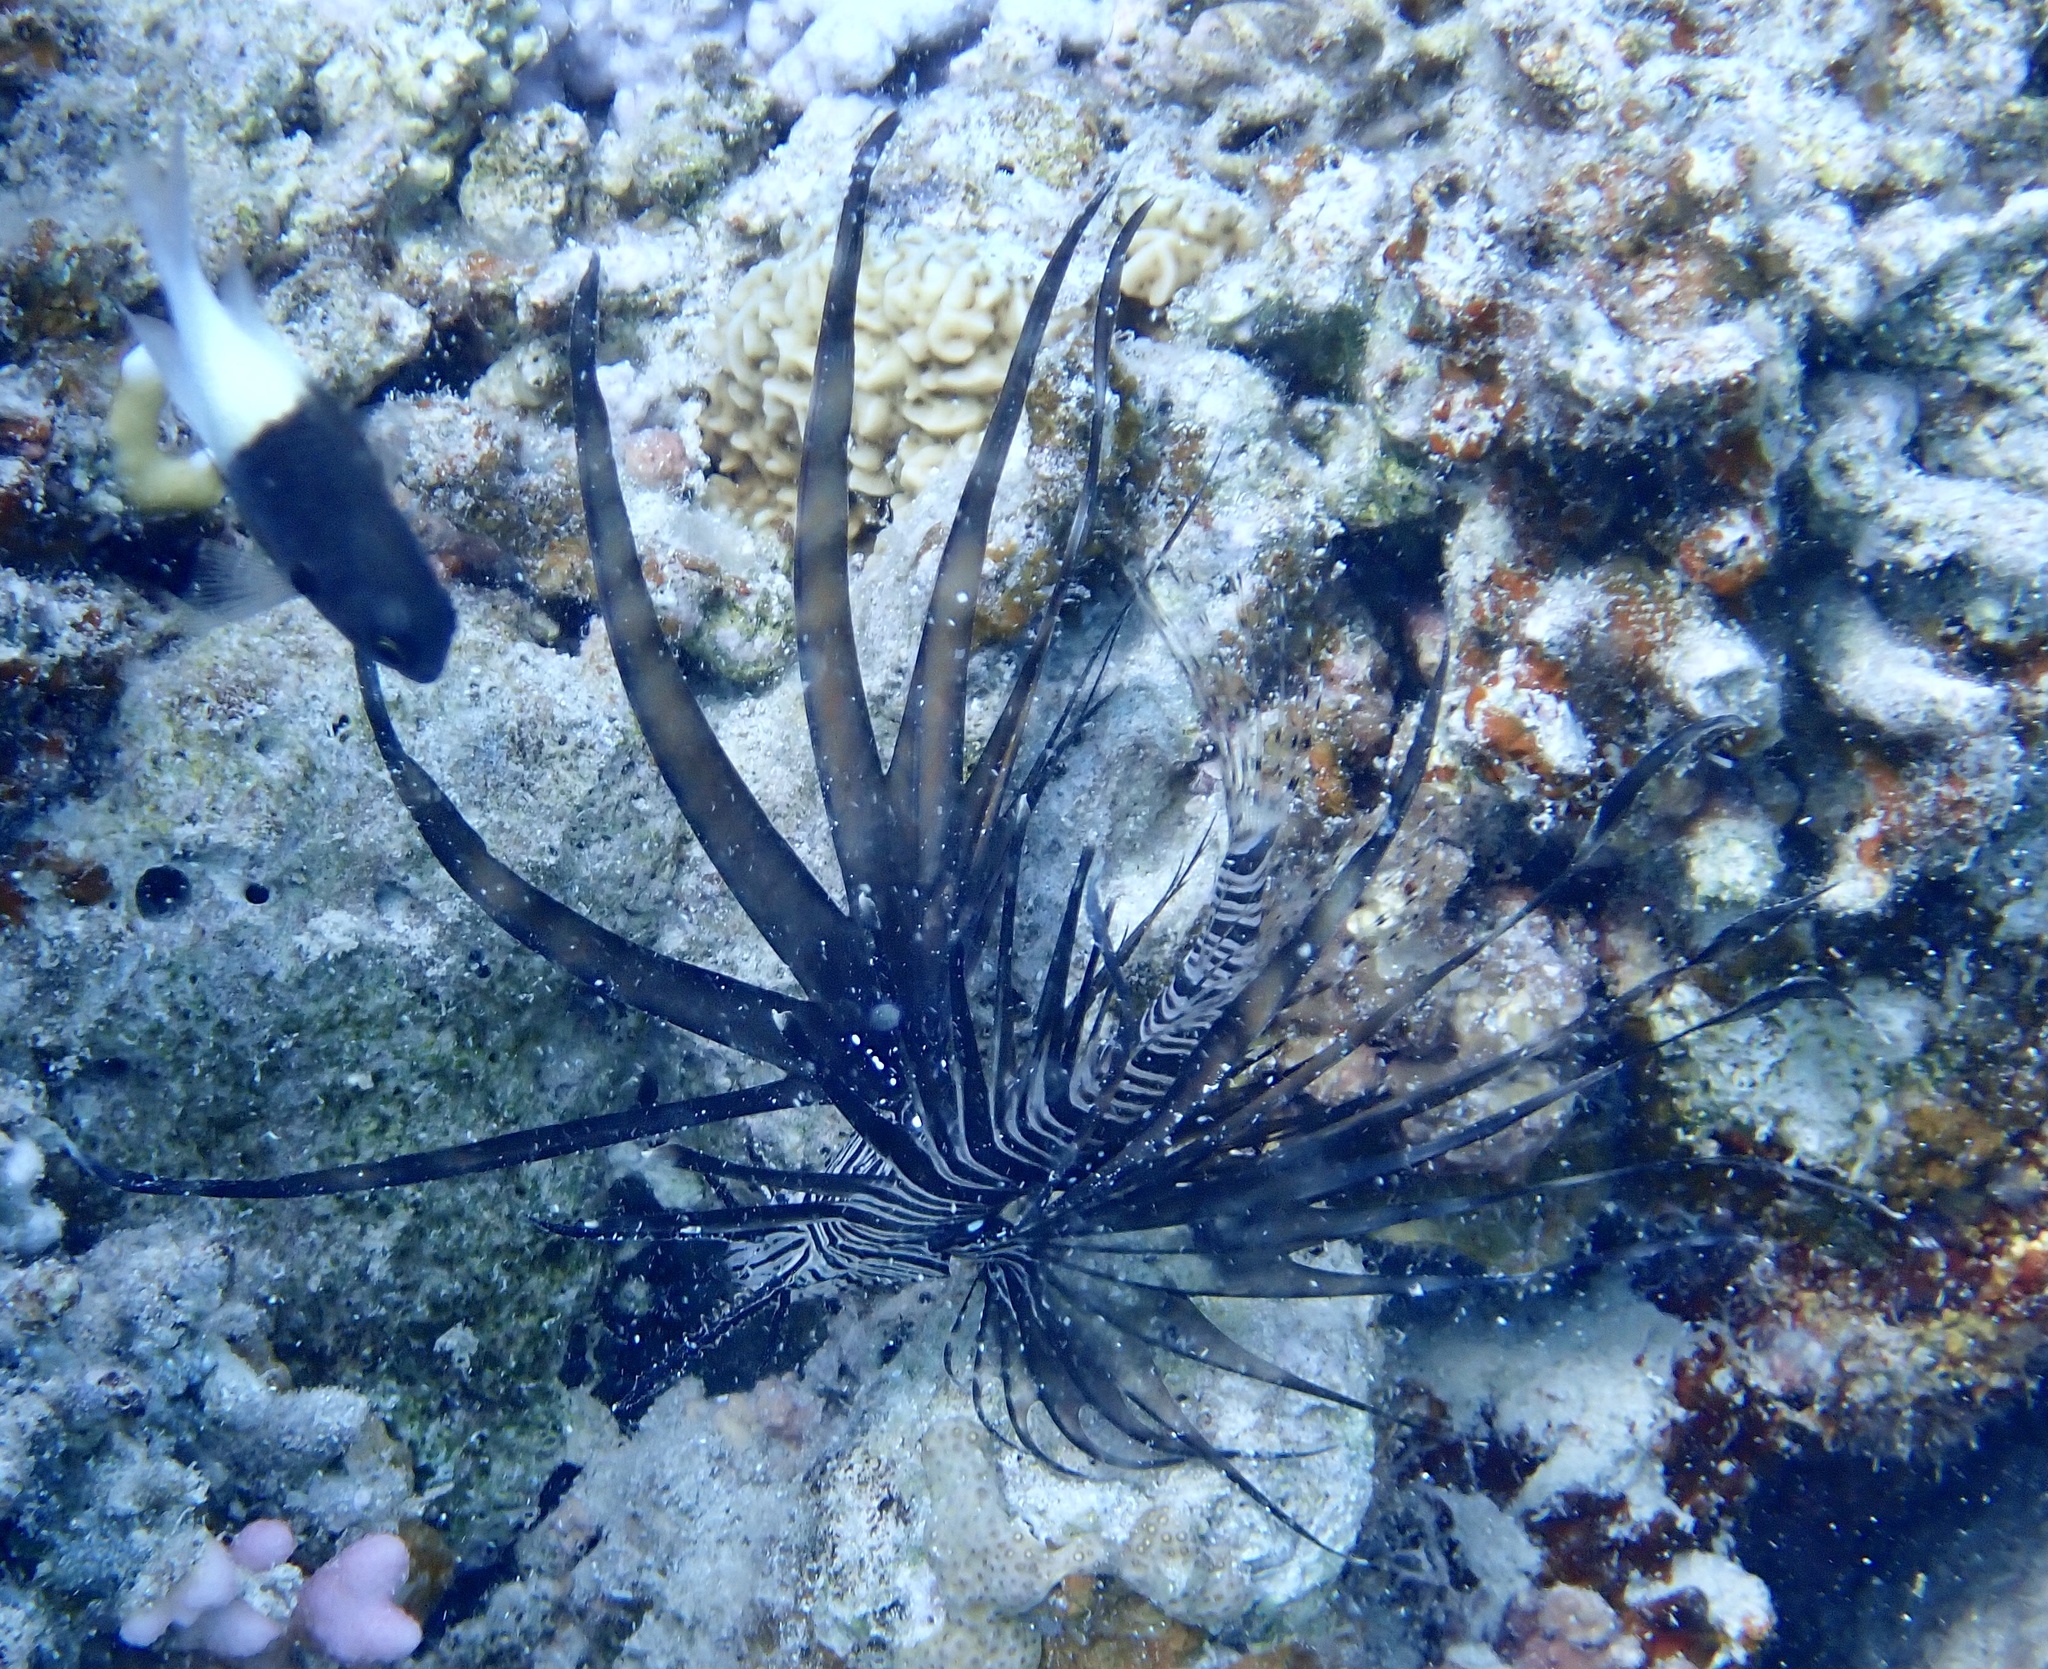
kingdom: Animalia
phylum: Chordata
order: Scorpaeniformes
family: Scorpaenidae
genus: Pterois
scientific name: Pterois miles
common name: Devil firefish
